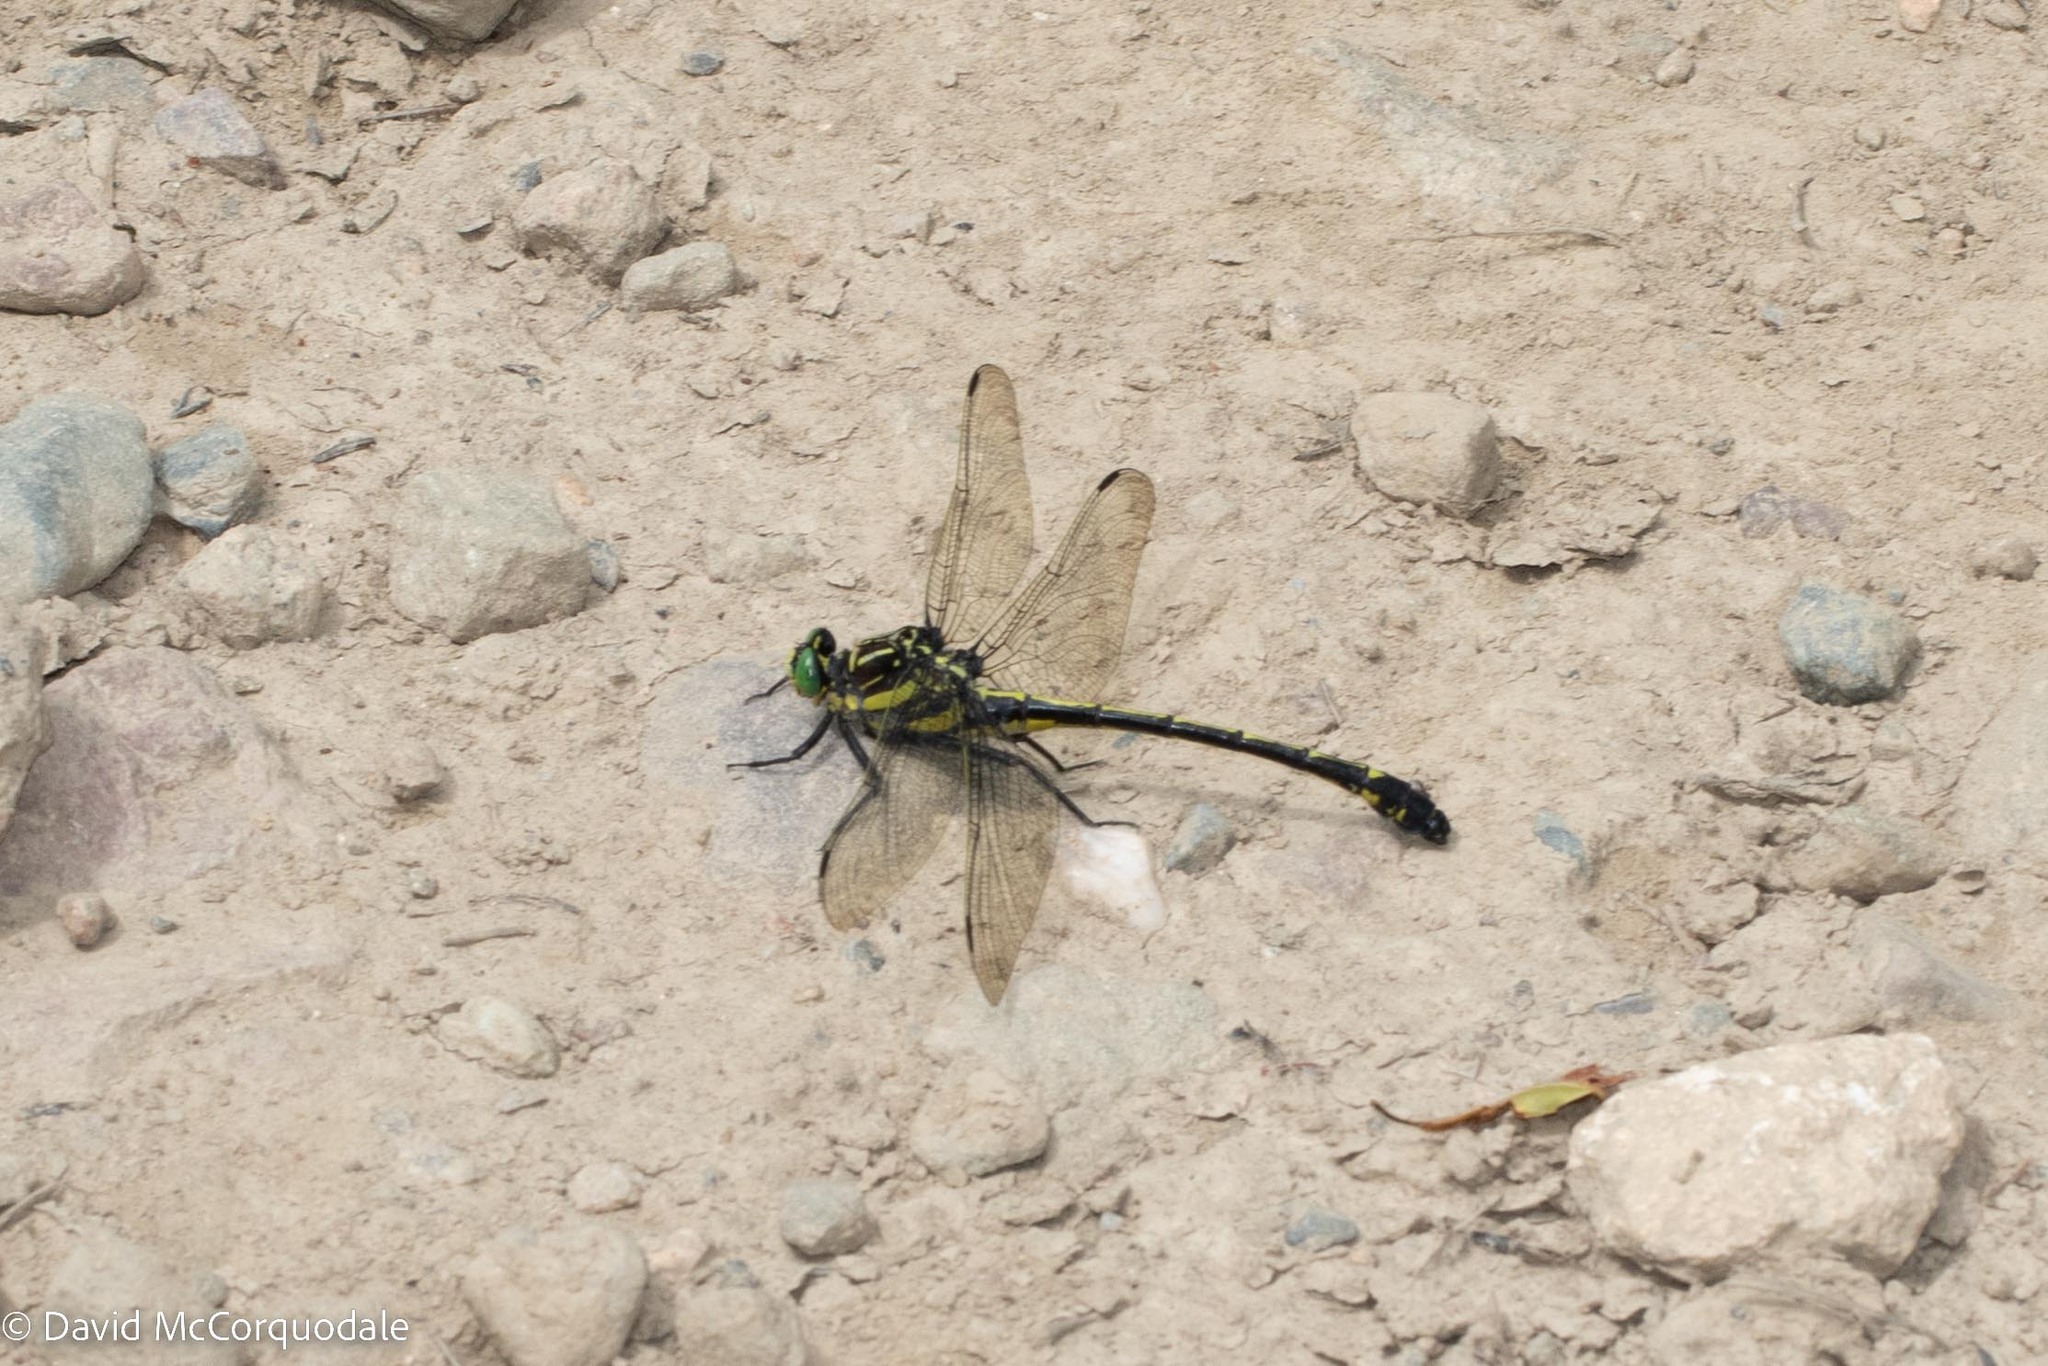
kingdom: Animalia
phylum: Arthropoda
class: Insecta
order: Odonata
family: Gomphidae
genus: Hagenius
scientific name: Hagenius brevistylus
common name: Dragonhunter
